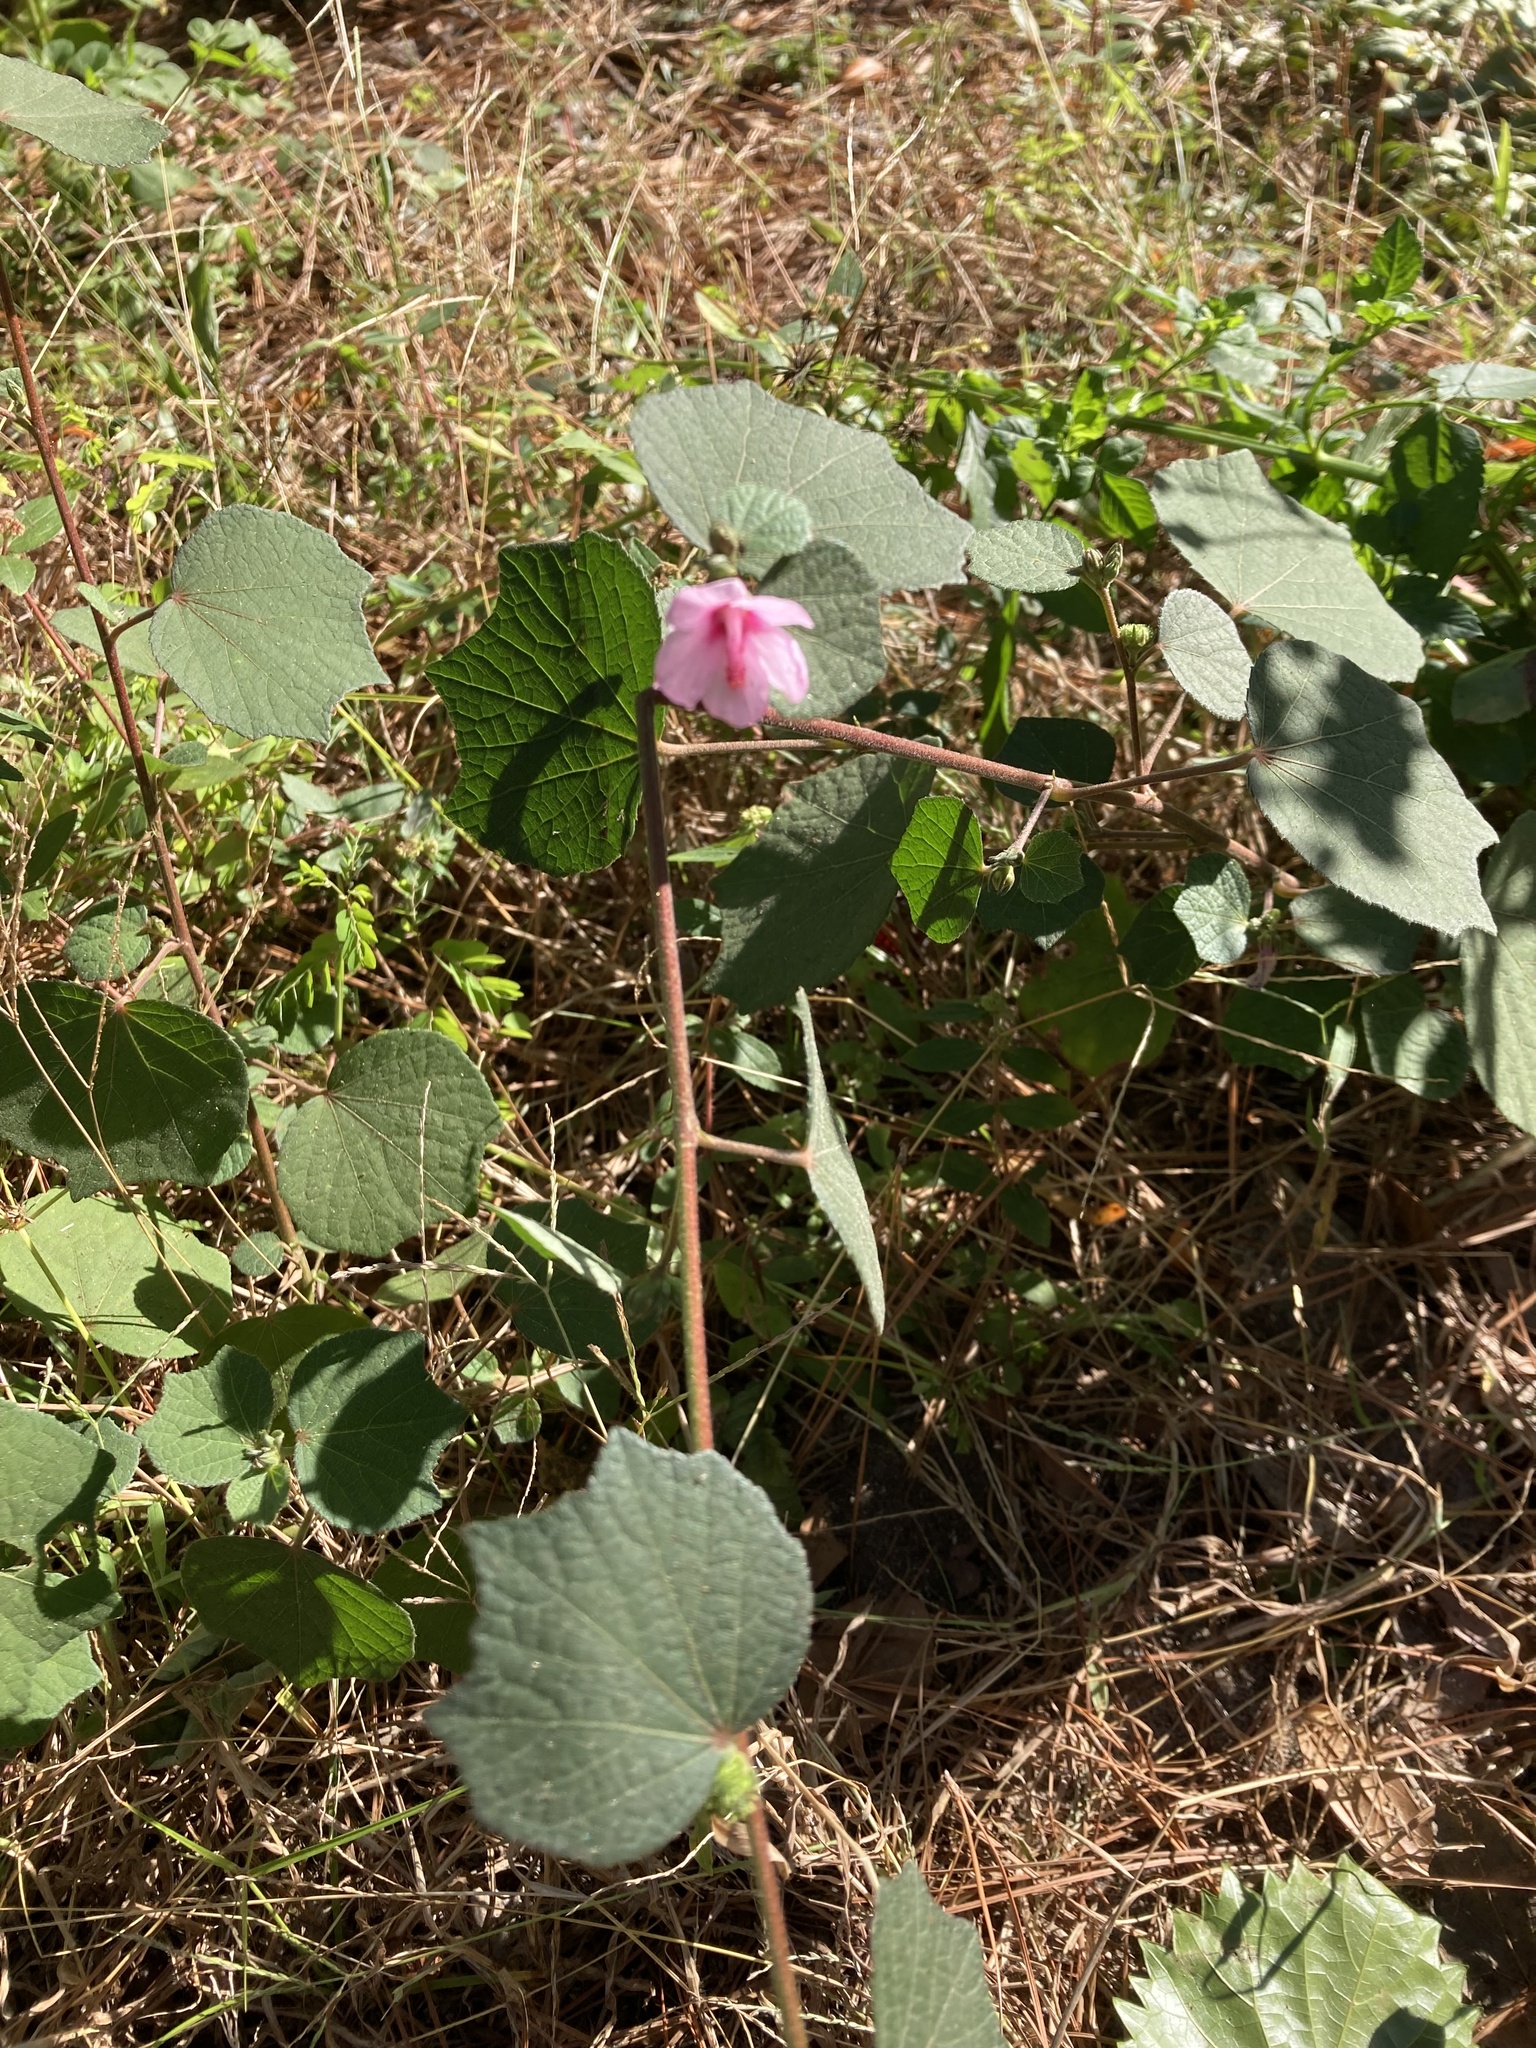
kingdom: Plantae
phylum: Tracheophyta
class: Magnoliopsida
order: Malvales
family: Malvaceae
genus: Urena
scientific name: Urena lobata
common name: Caesarweed
